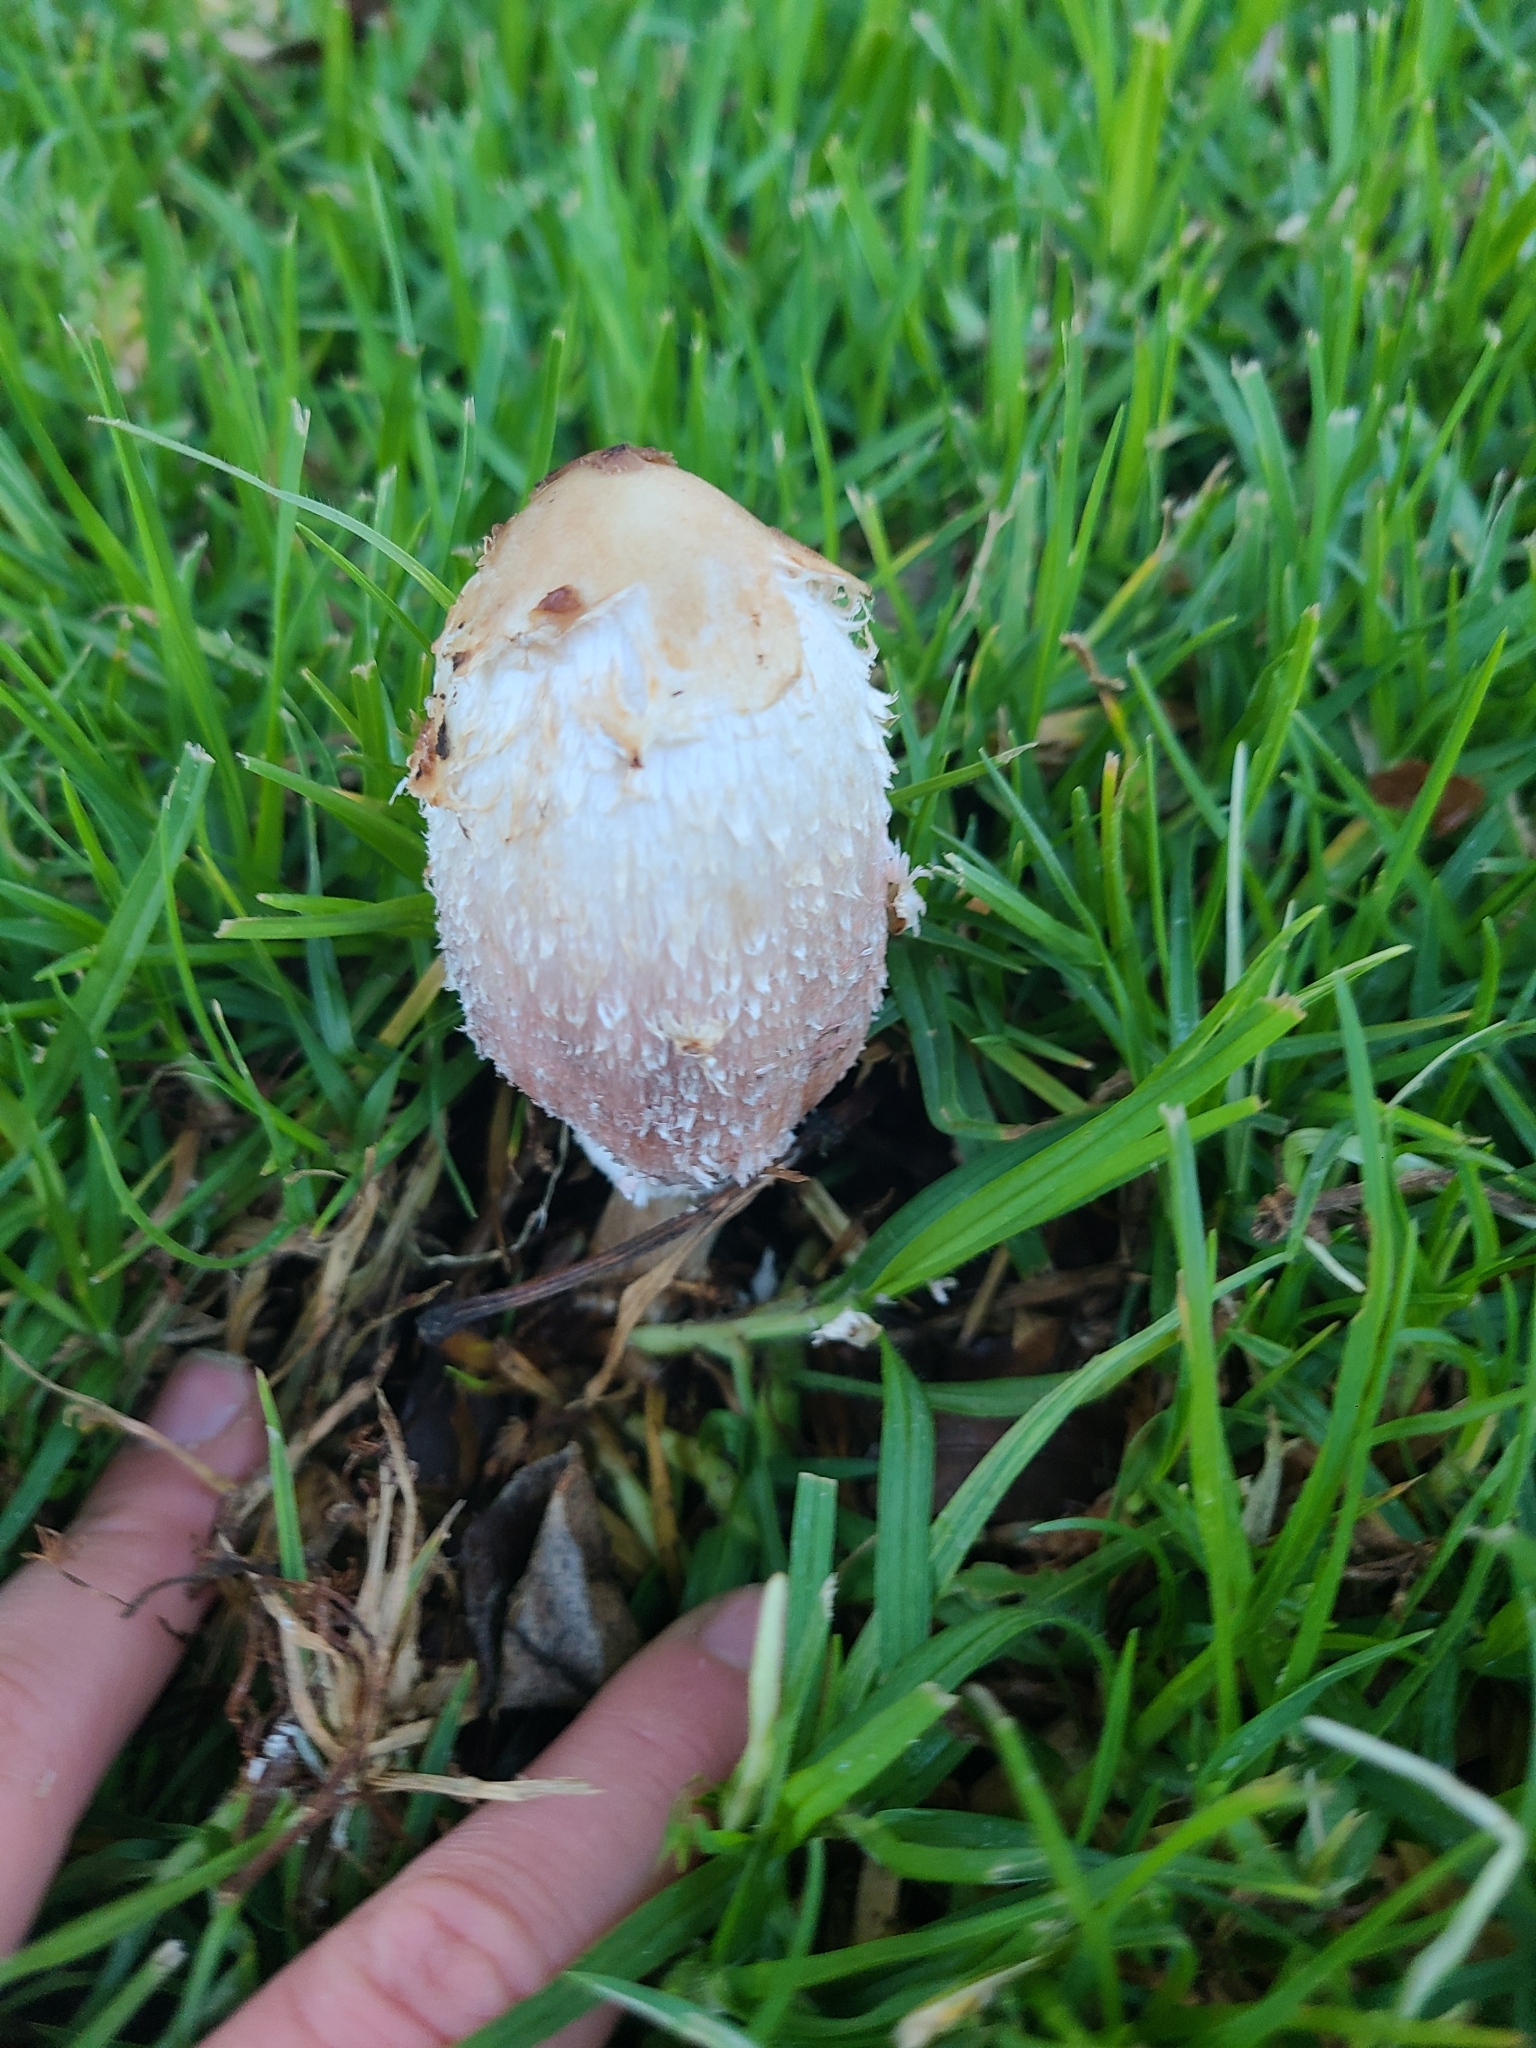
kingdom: Fungi
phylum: Basidiomycota
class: Agaricomycetes
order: Agaricales
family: Agaricaceae
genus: Coprinus
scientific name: Coprinus comatus
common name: Lawyer's wig
